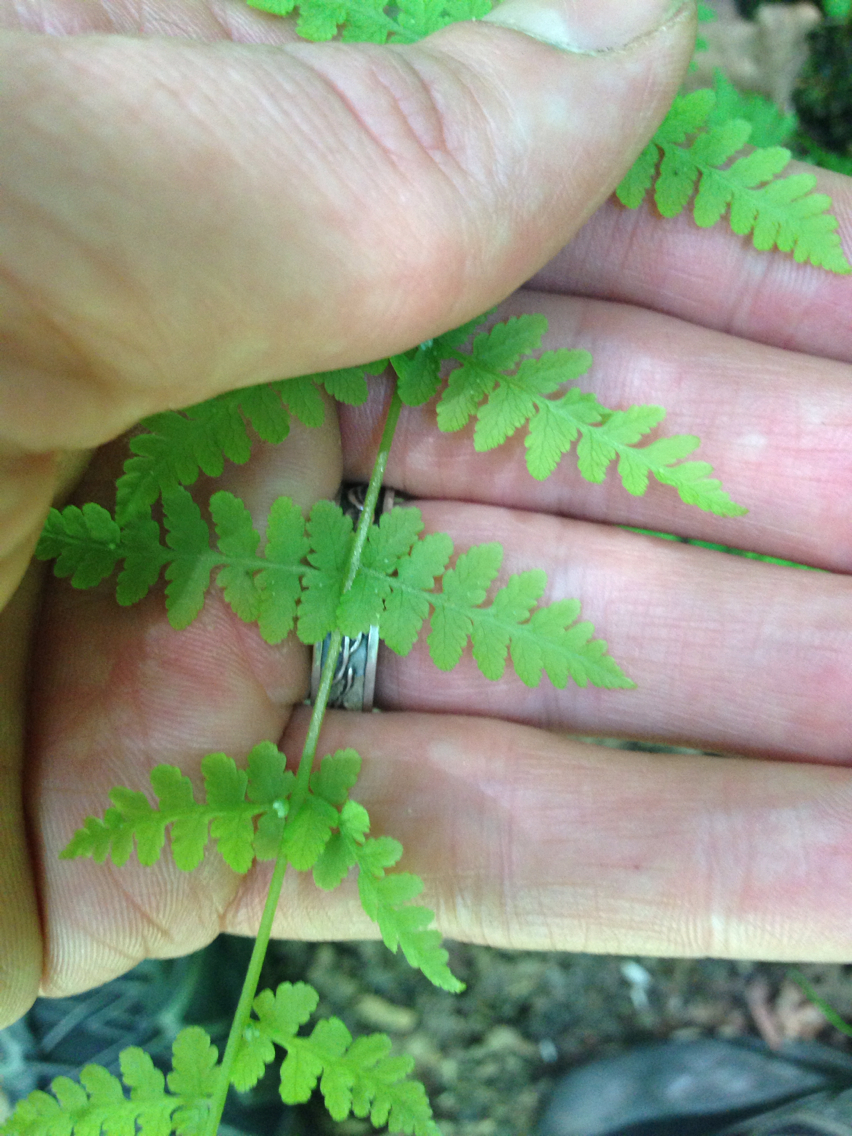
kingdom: Plantae
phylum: Tracheophyta
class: Polypodiopsida
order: Polypodiales
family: Cystopteridaceae
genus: Cystopteris
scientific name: Cystopteris bulbifera
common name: Bulblet bladder fern
